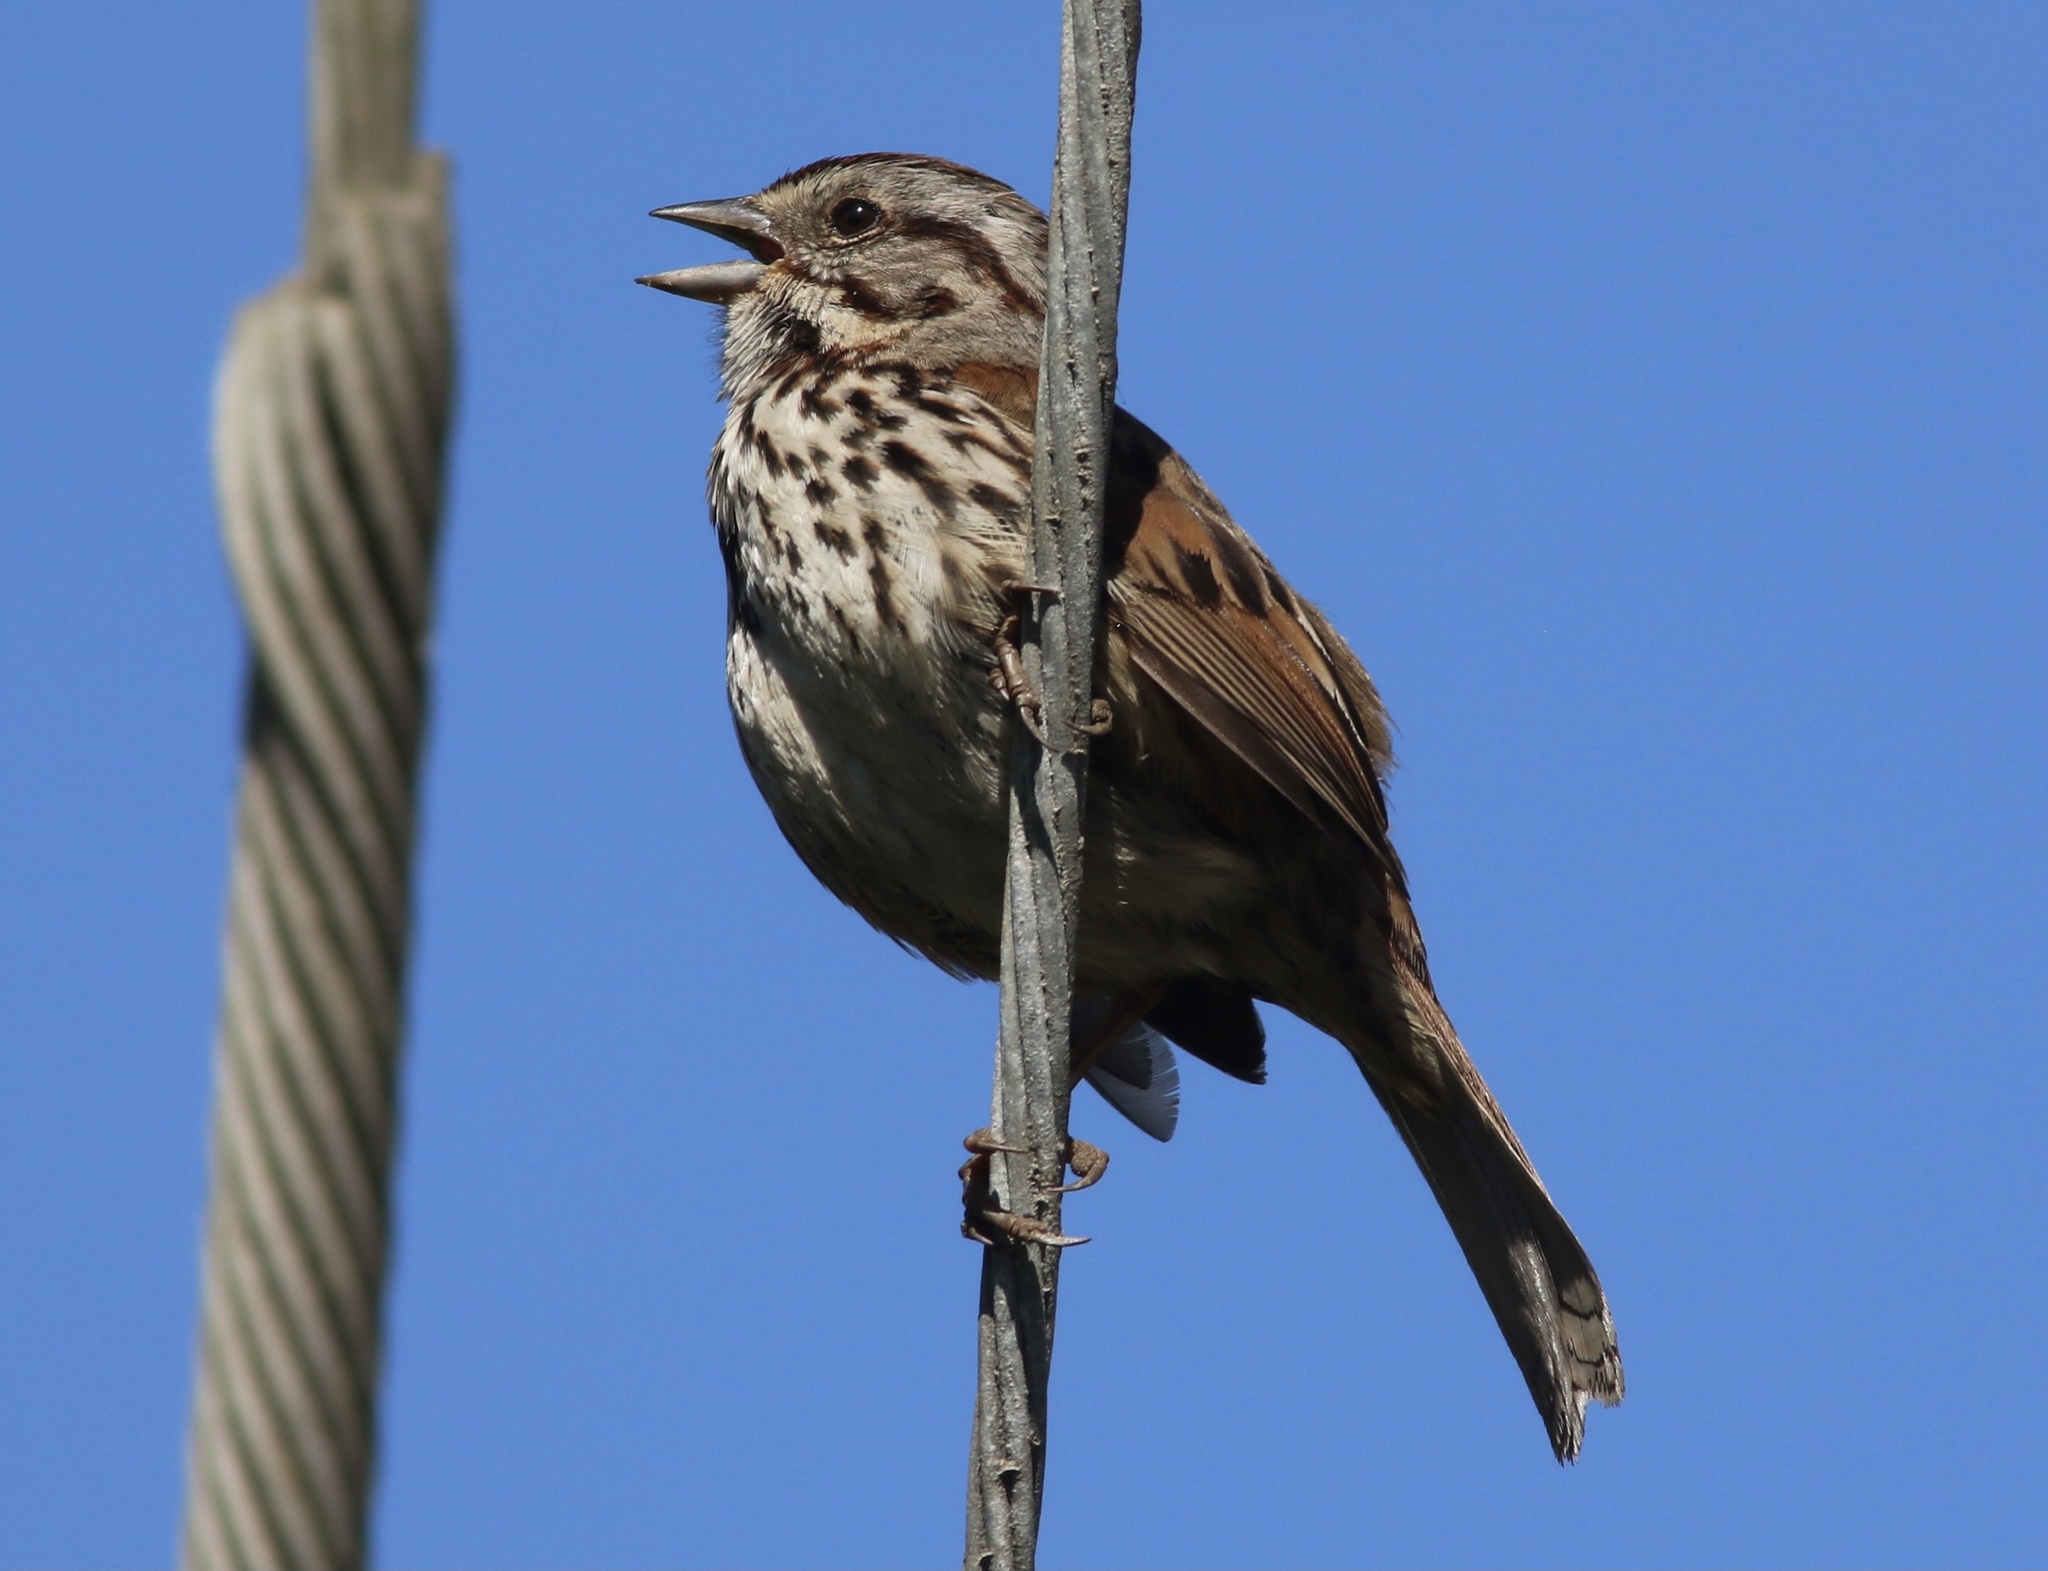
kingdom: Animalia
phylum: Chordata
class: Aves
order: Passeriformes
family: Passerellidae
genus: Melospiza
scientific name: Melospiza melodia
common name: Song sparrow
